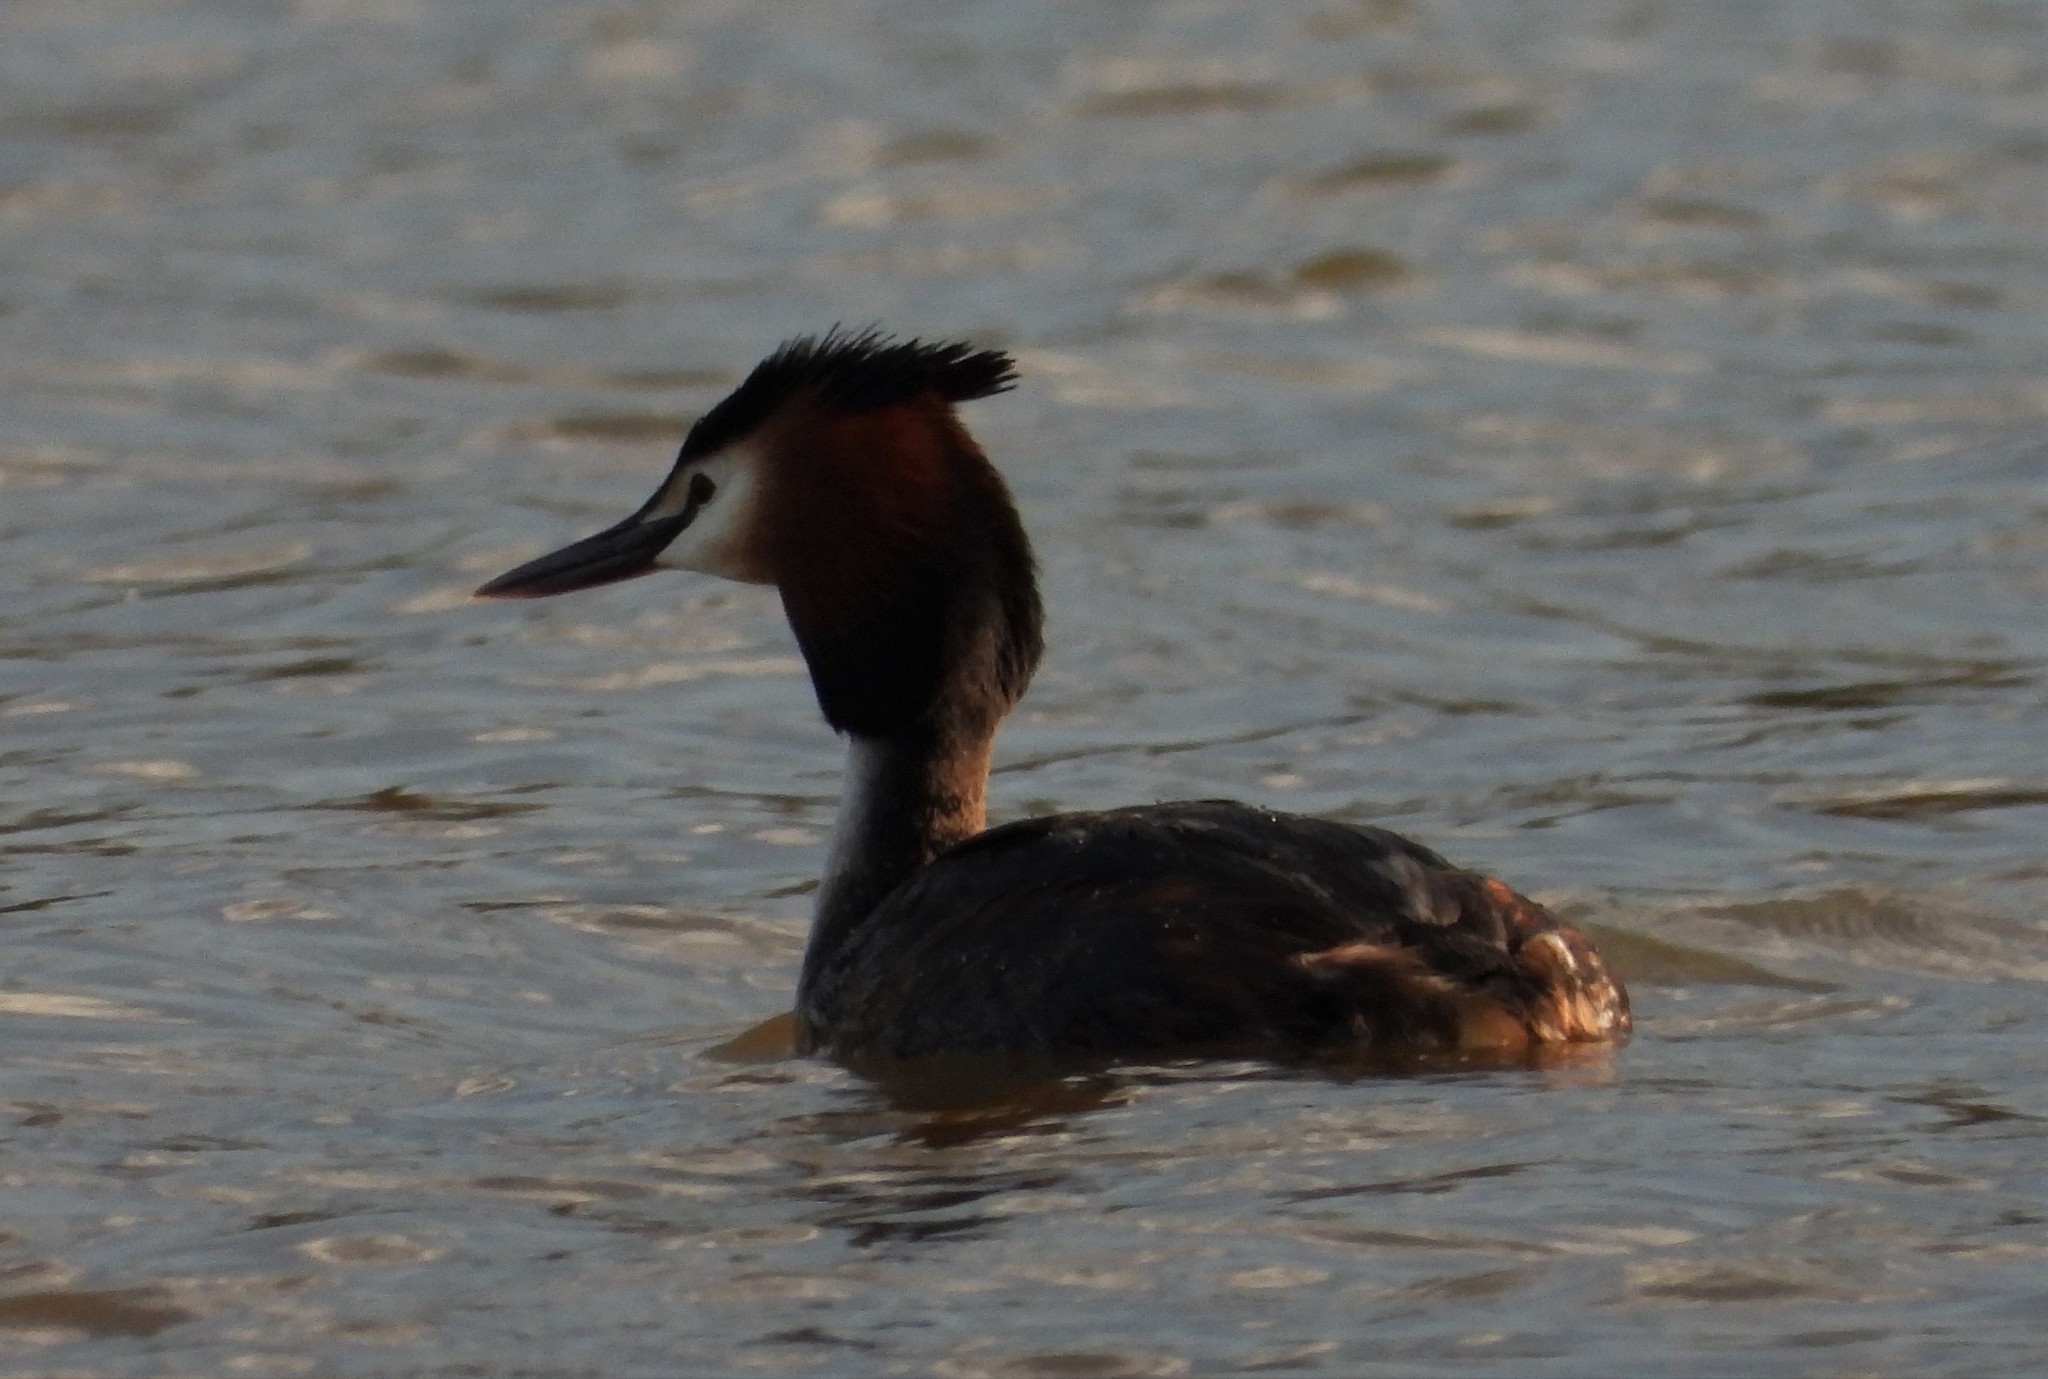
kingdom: Animalia
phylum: Chordata
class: Aves
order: Podicipediformes
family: Podicipedidae
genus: Podiceps
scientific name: Podiceps cristatus
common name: Great crested grebe
